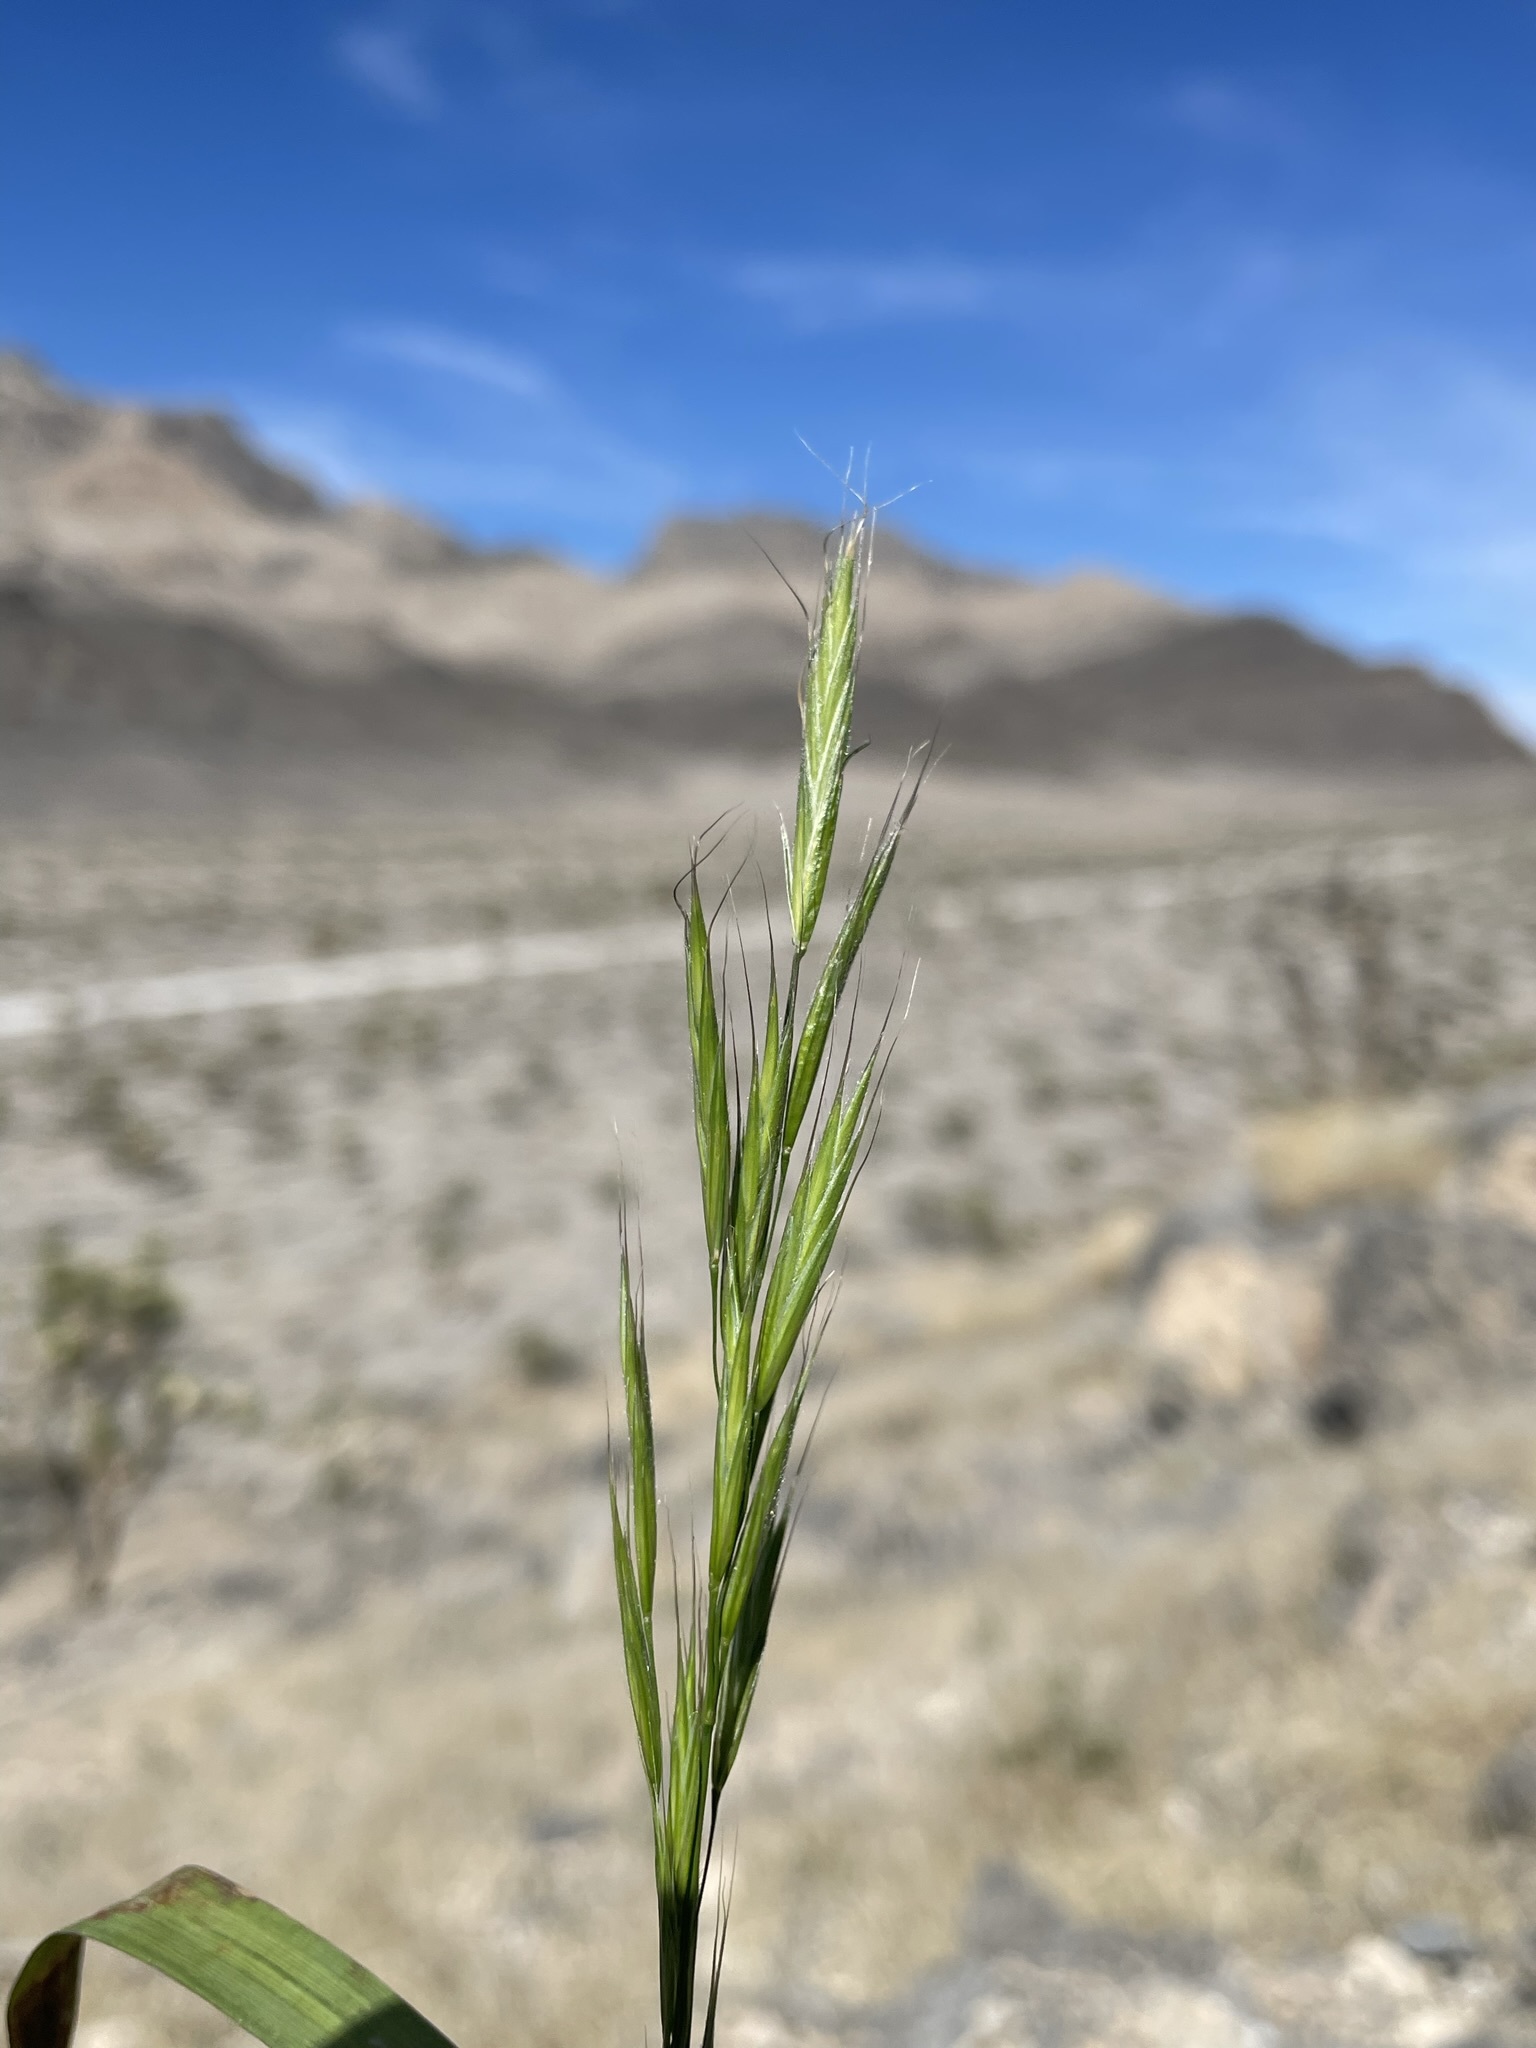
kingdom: Plantae
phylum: Tracheophyta
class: Liliopsida
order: Poales
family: Poaceae
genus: Bromus
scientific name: Bromus berteroanus
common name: Chilean chess
